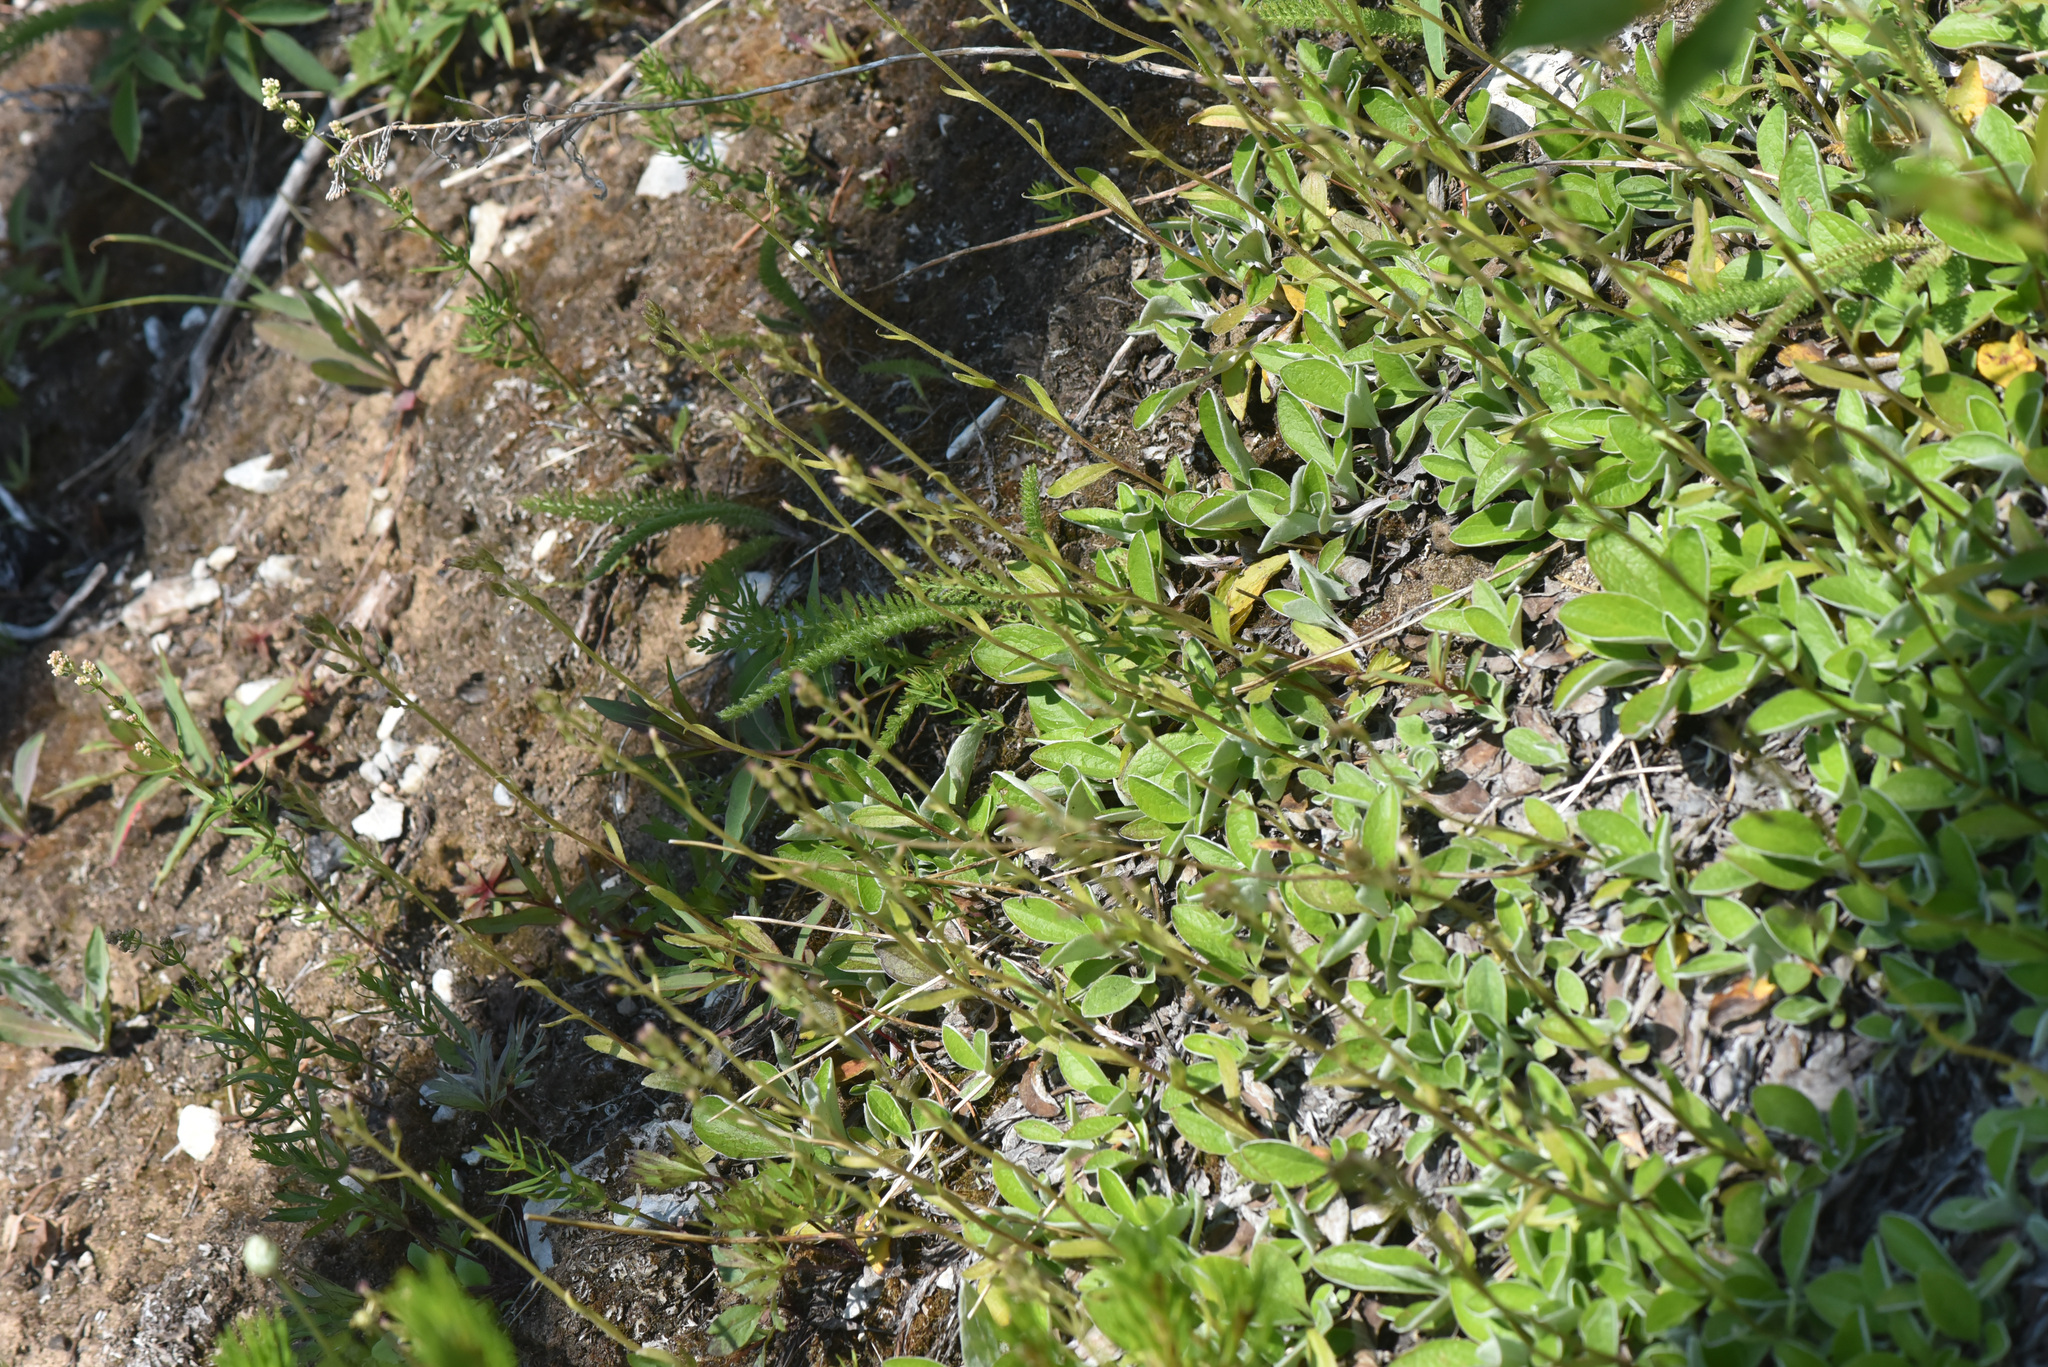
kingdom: Plantae
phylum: Tracheophyta
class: Magnoliopsida
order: Asterales
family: Asteraceae
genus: Antennaria
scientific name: Antennaria racemosa
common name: Racemose pussytoes
